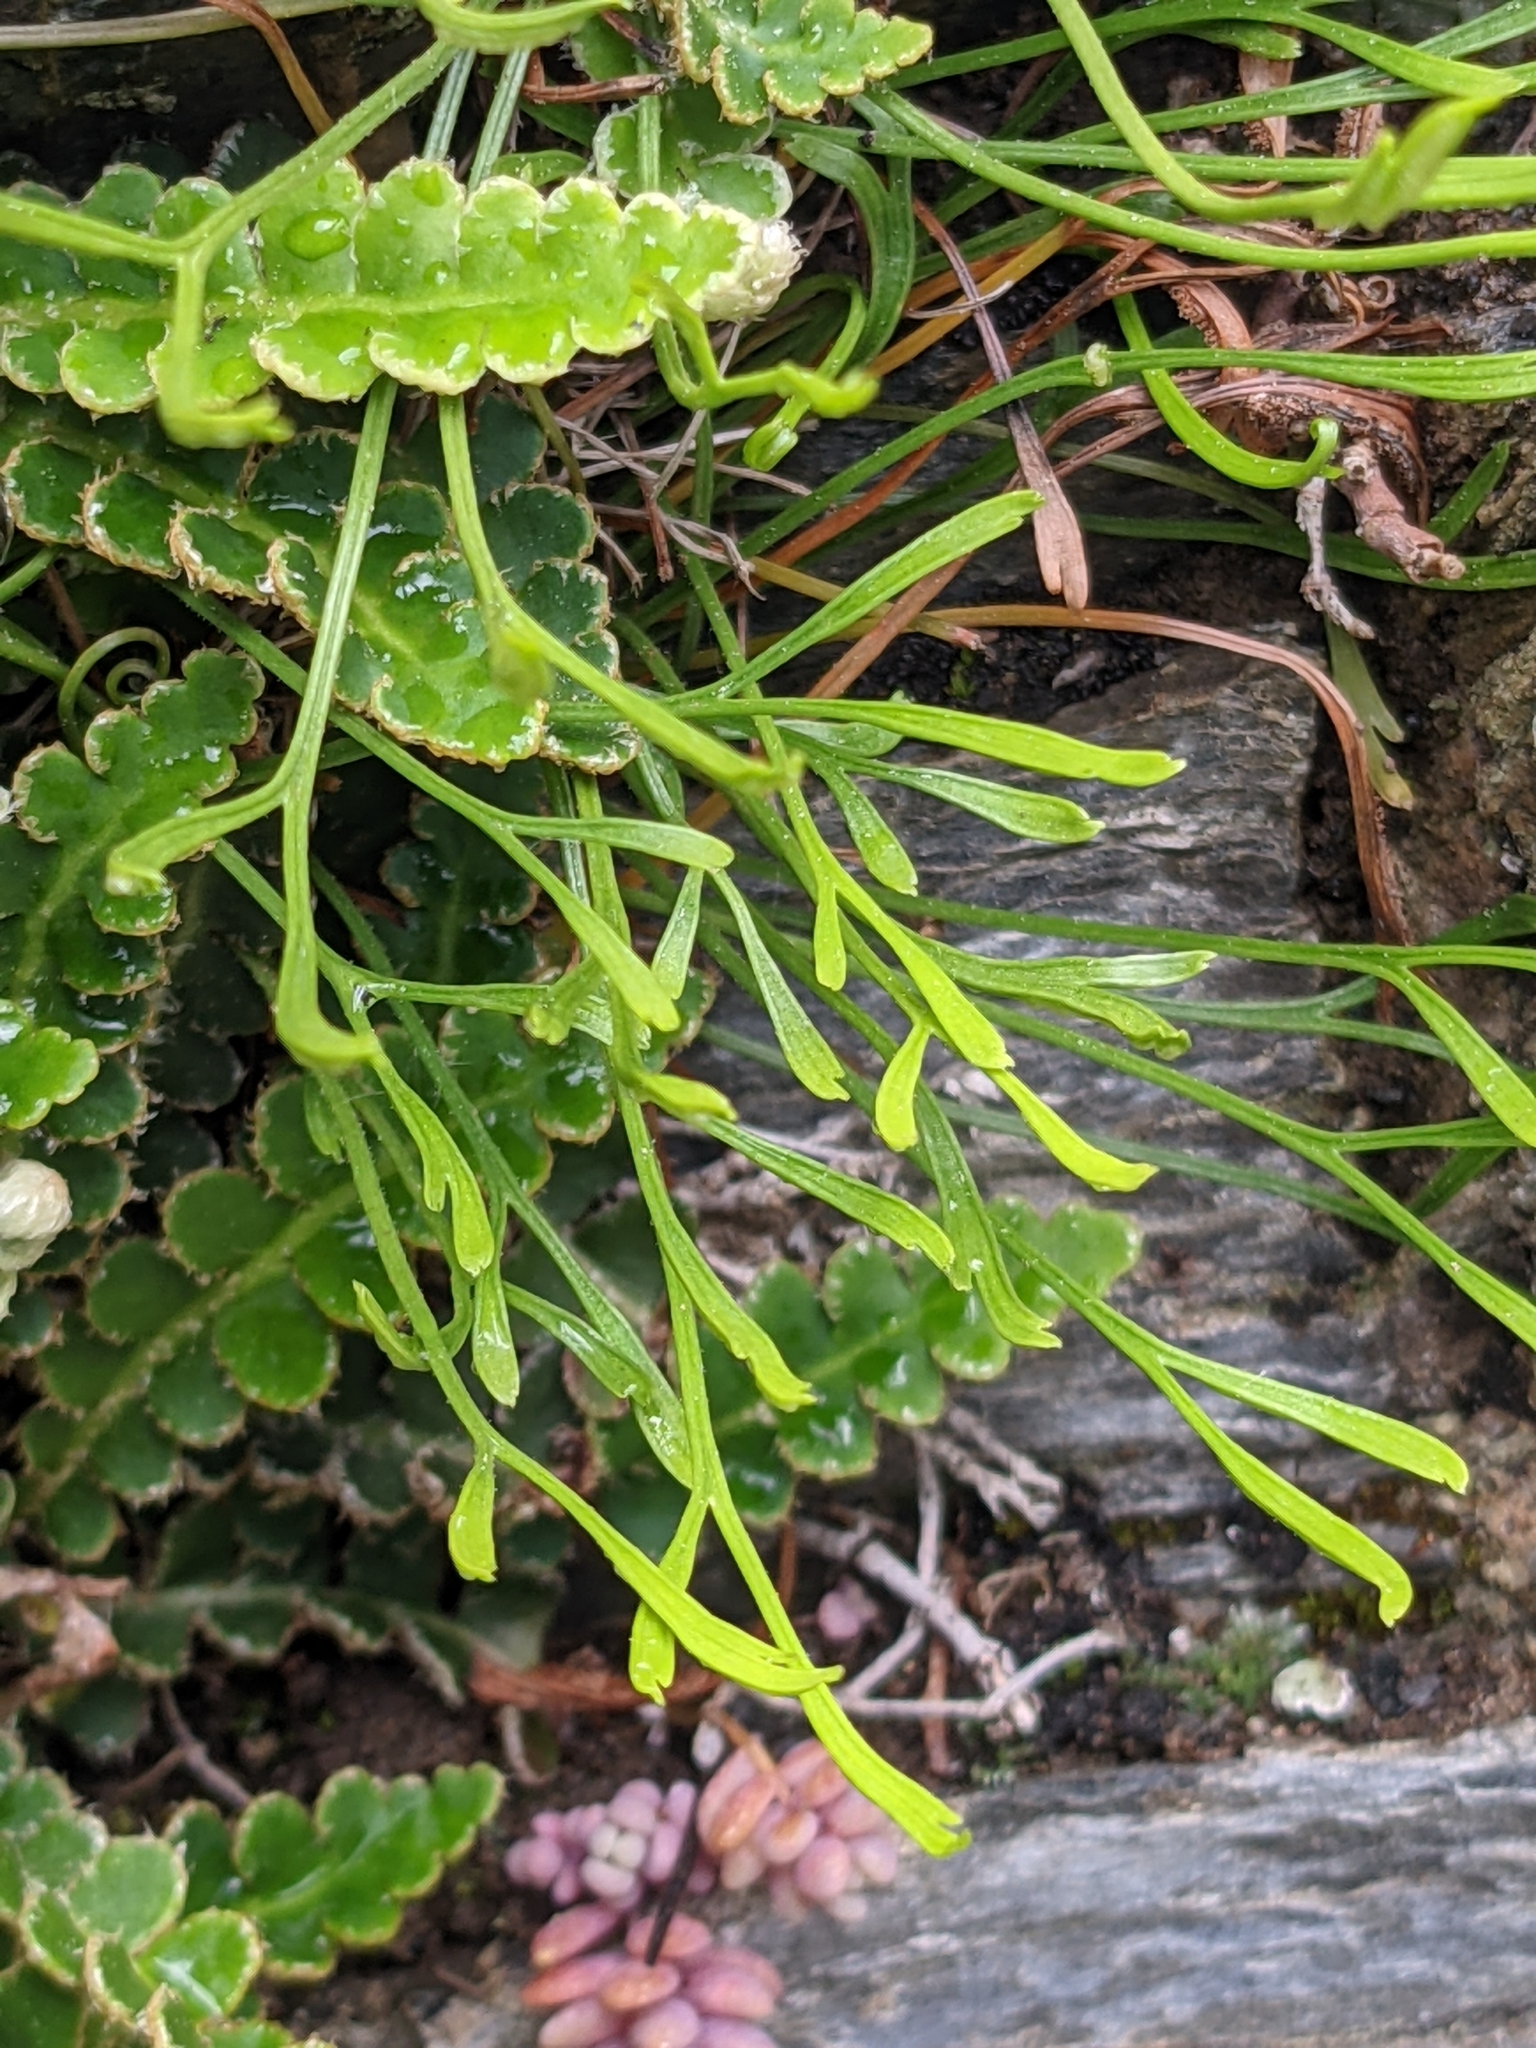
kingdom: Plantae
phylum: Tracheophyta
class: Polypodiopsida
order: Polypodiales
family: Aspleniaceae
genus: Asplenium
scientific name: Asplenium septentrionale
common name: Forked spleenwort
